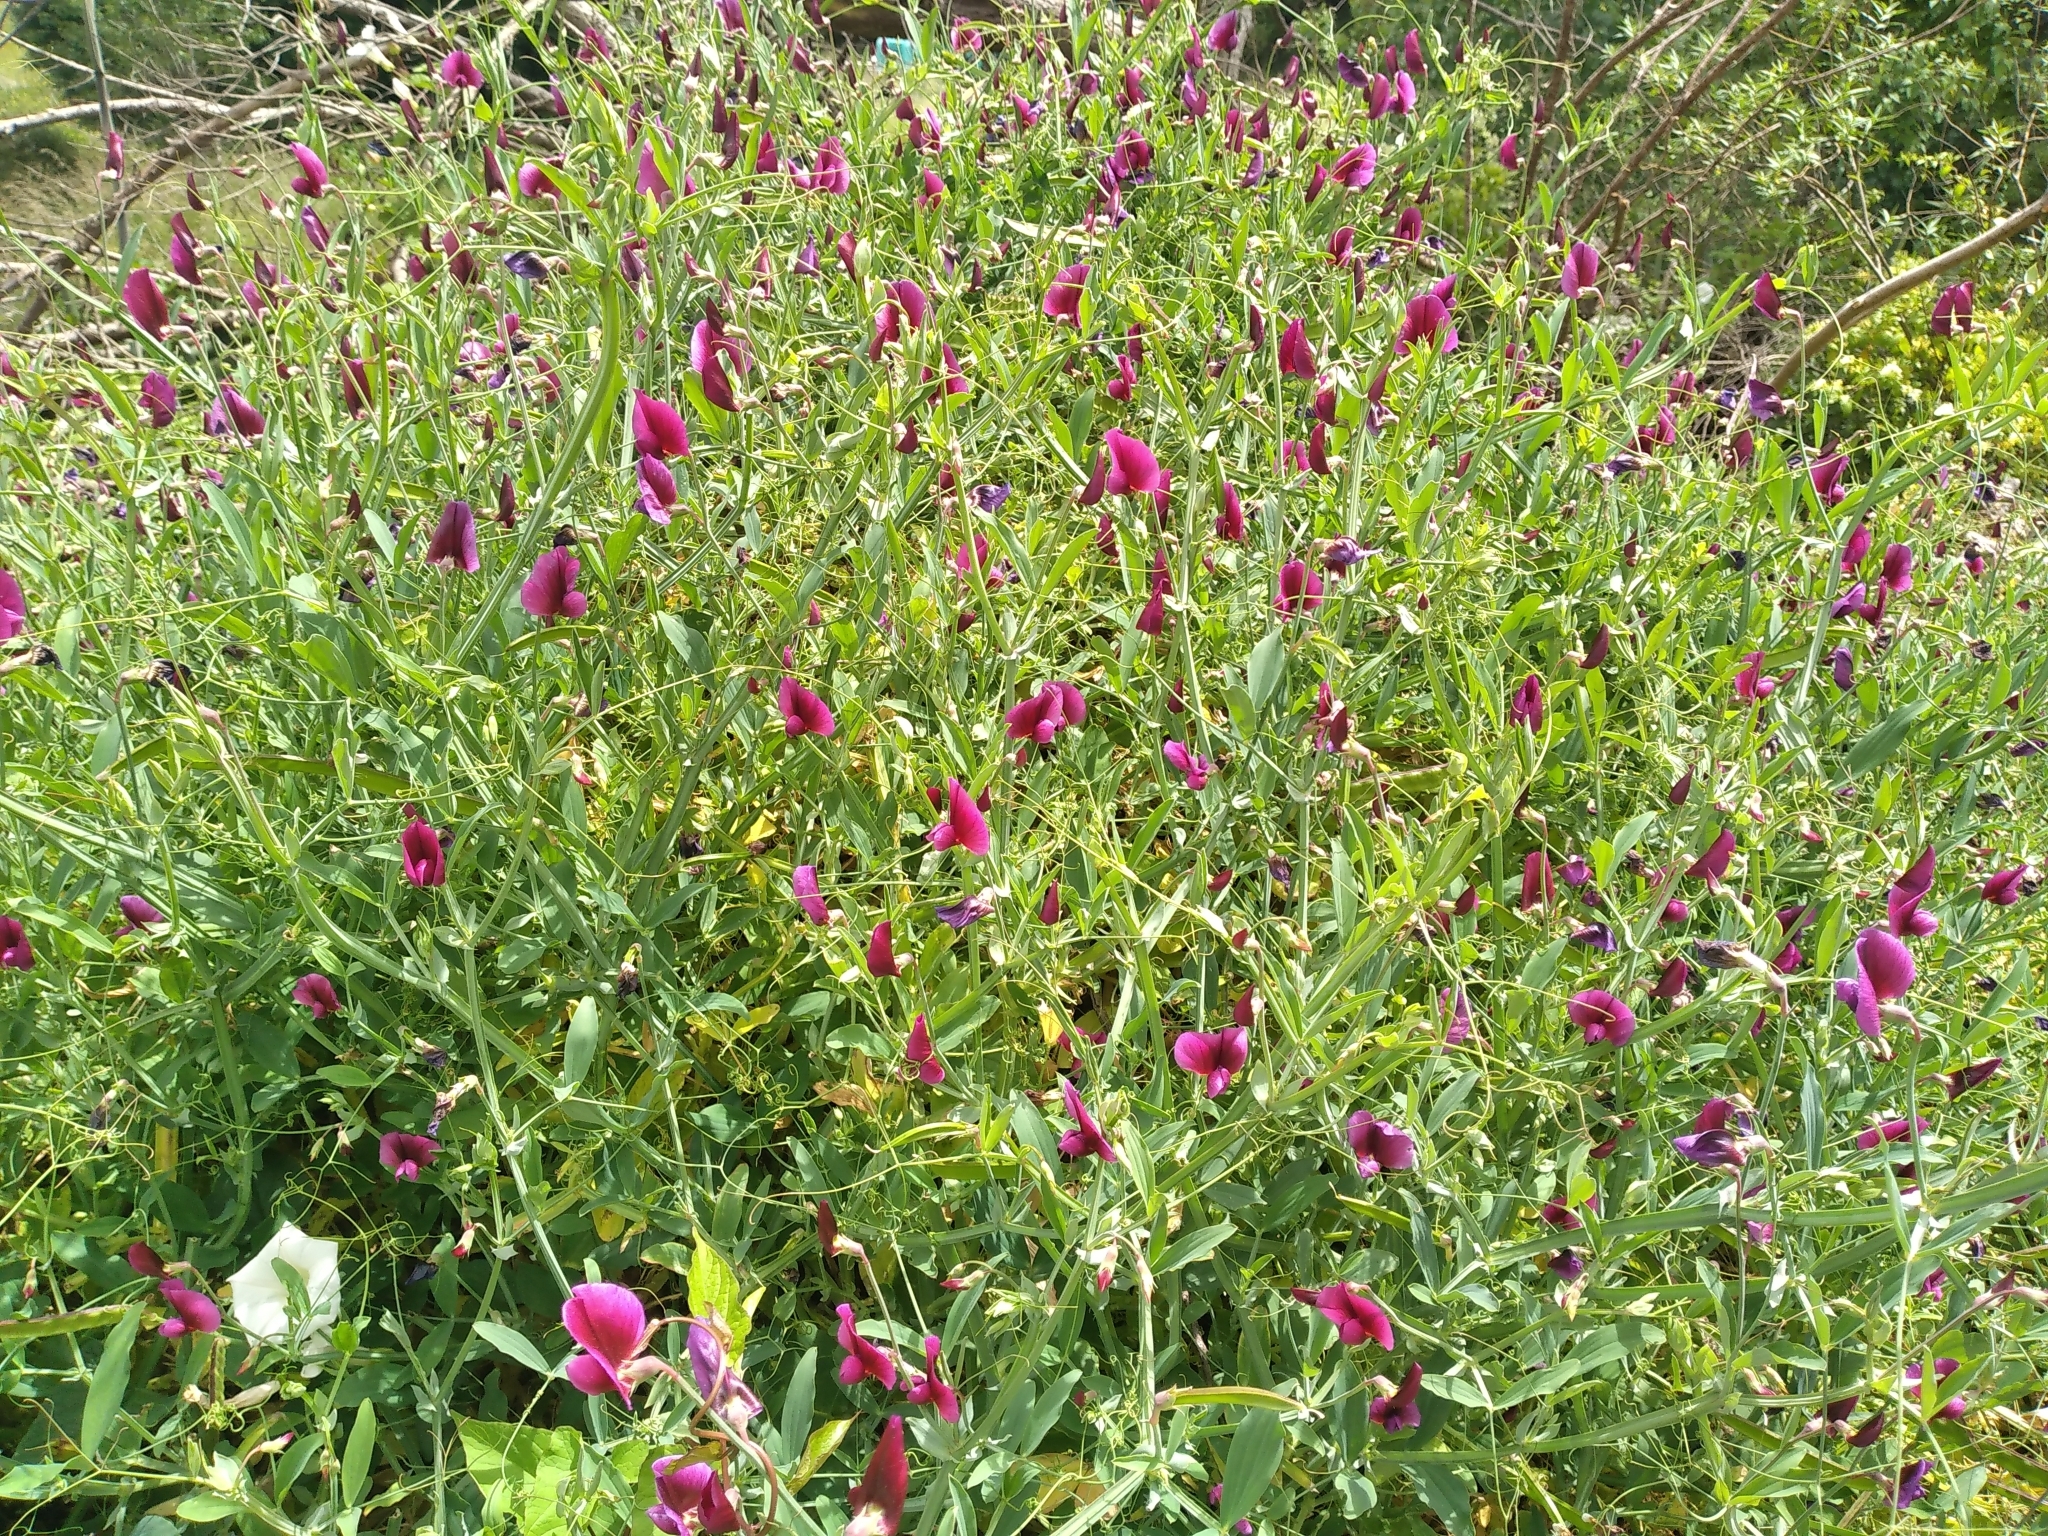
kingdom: Plantae
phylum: Tracheophyta
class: Magnoliopsida
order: Fabales
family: Fabaceae
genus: Lathyrus
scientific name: Lathyrus tingitanus
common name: Tangier pea
